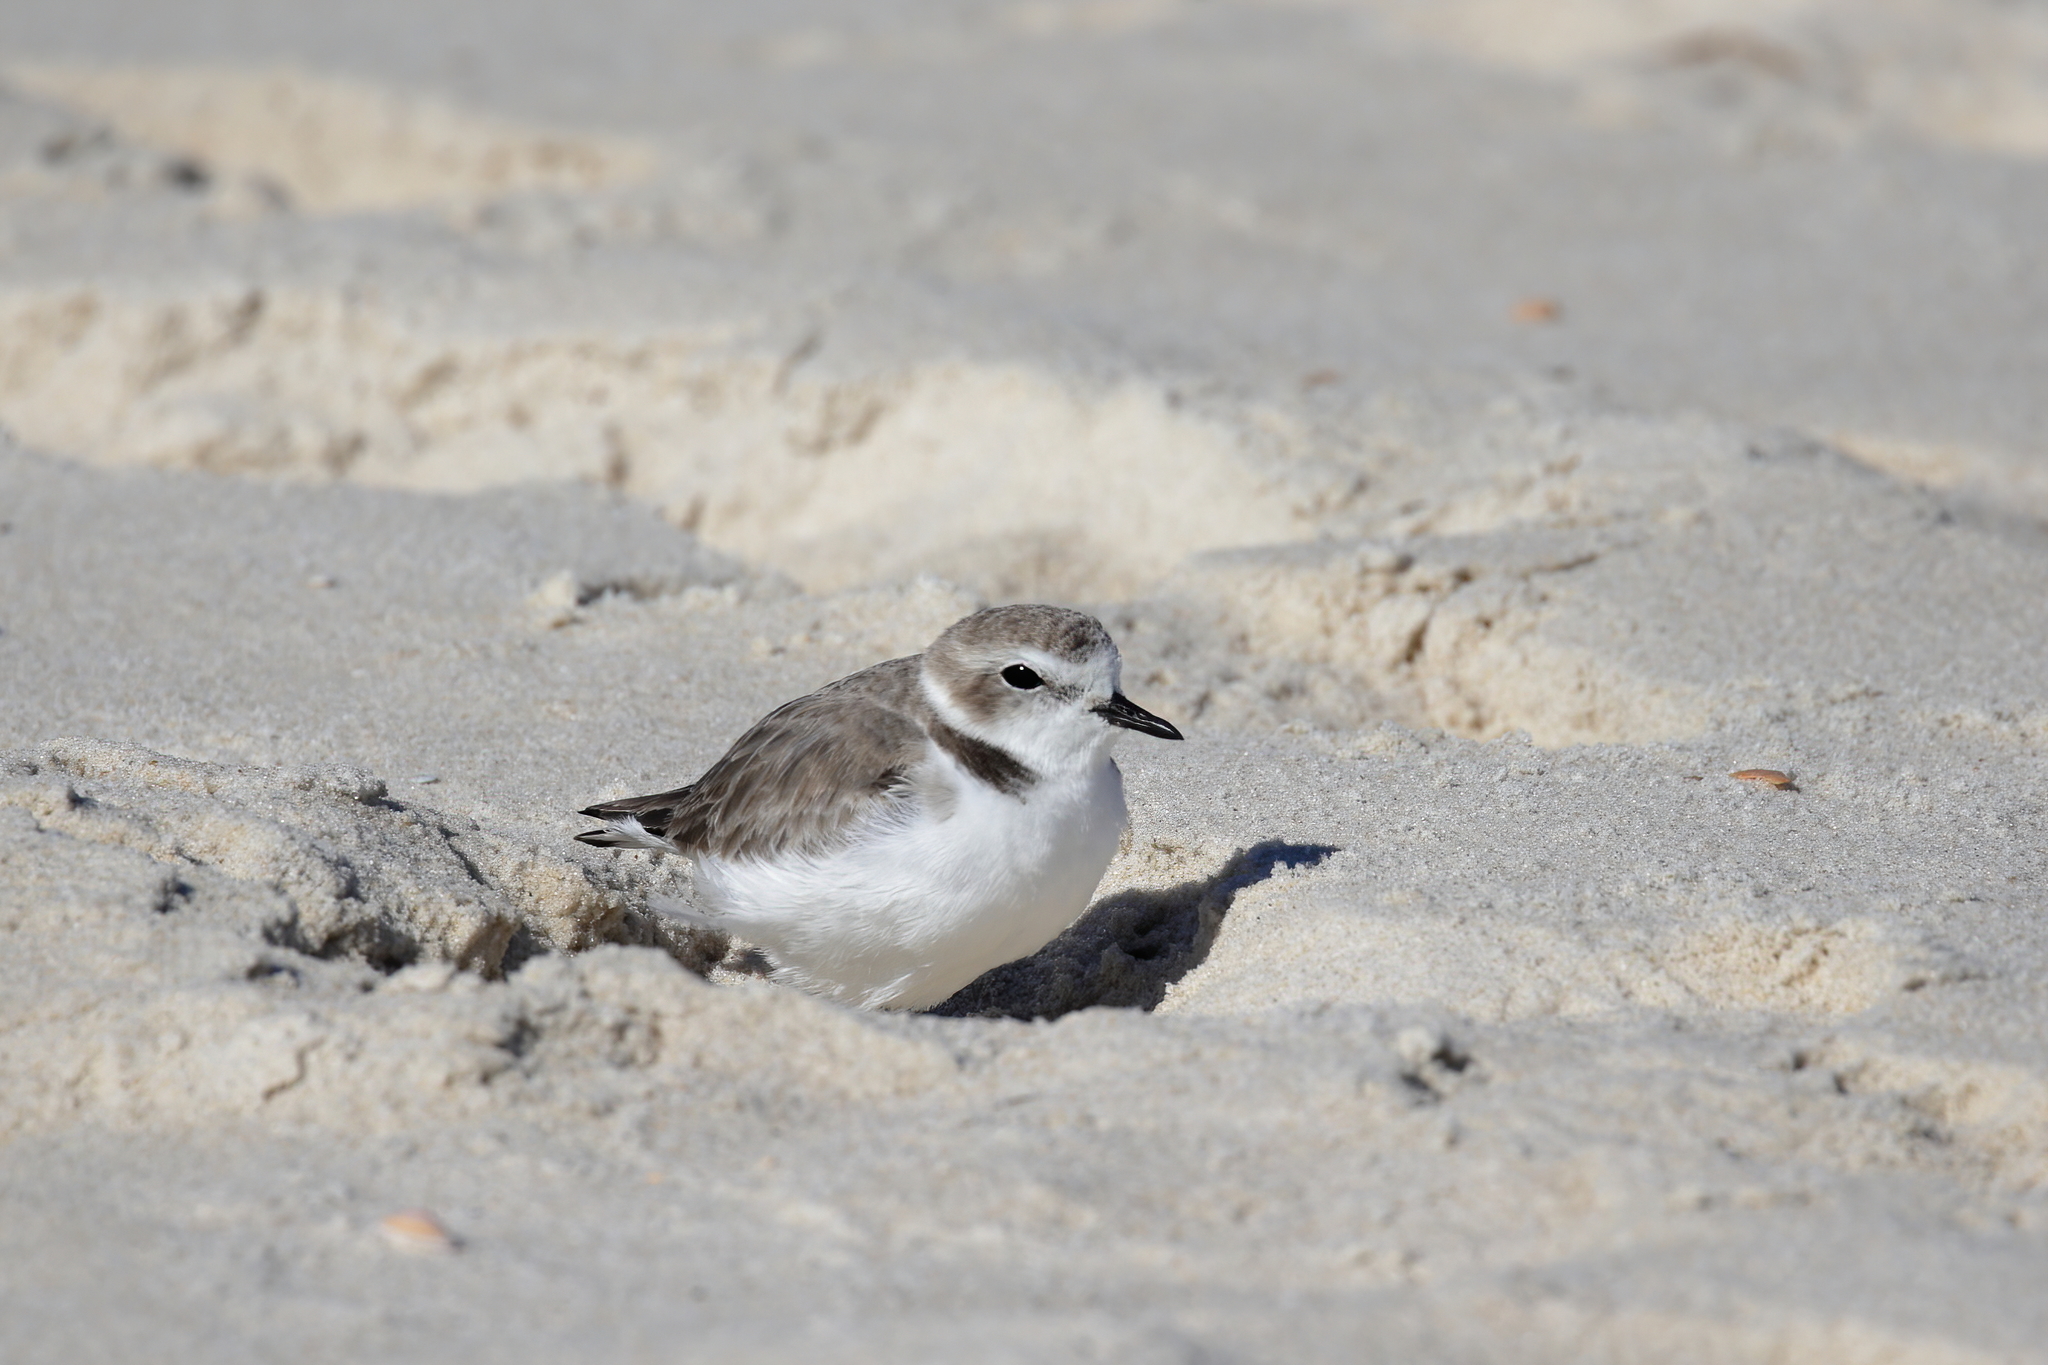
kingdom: Animalia
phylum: Chordata
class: Aves
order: Charadriiformes
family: Charadriidae
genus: Anarhynchus
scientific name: Anarhynchus
